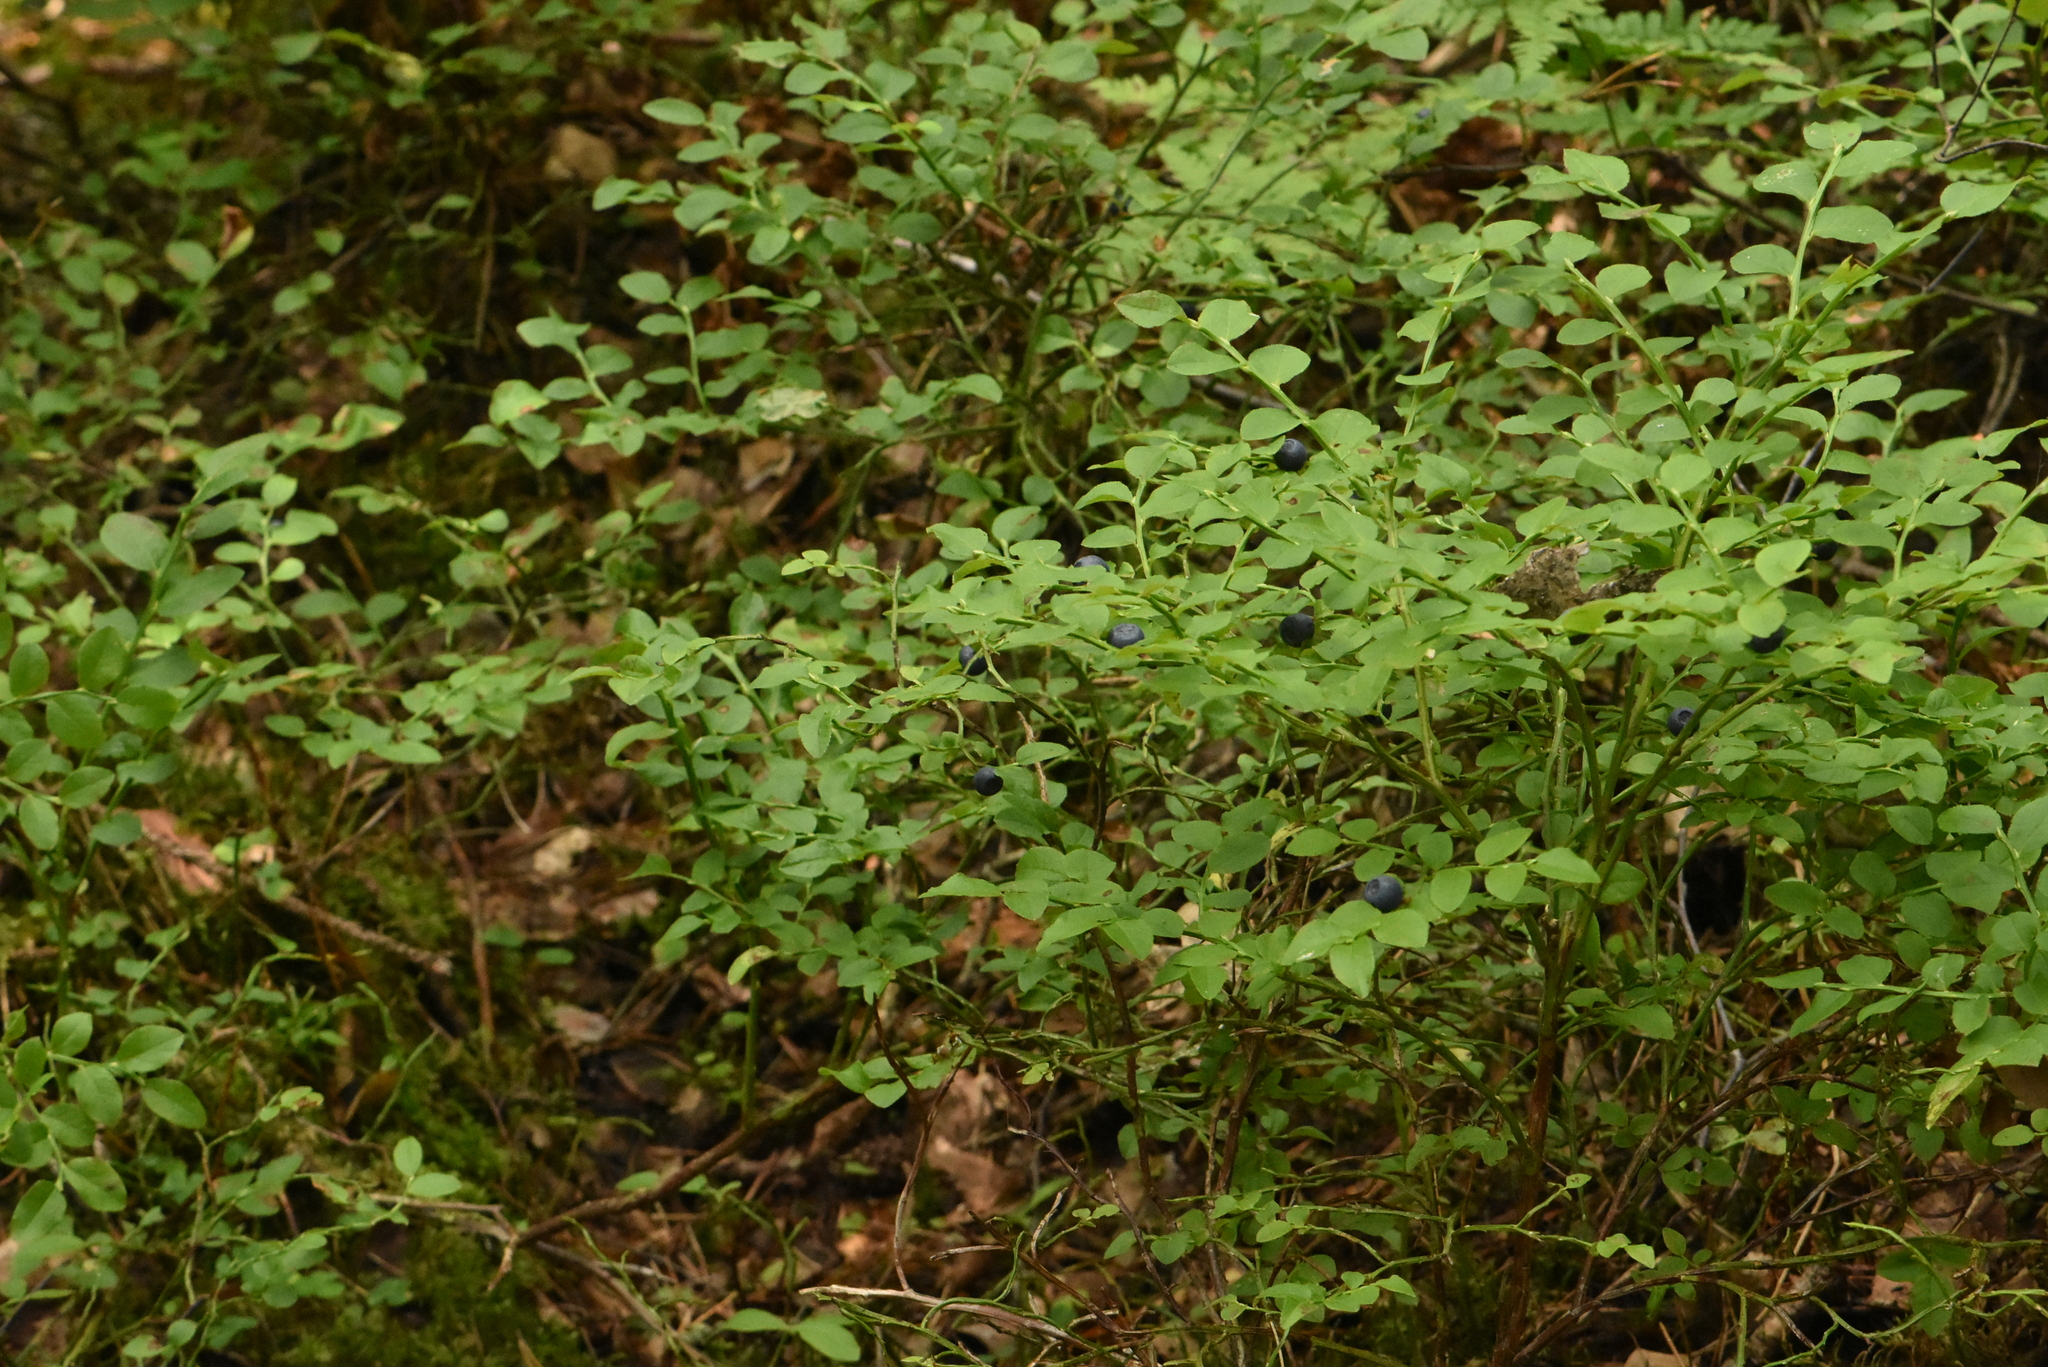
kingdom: Plantae
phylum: Tracheophyta
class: Magnoliopsida
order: Ericales
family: Ericaceae
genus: Vaccinium
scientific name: Vaccinium myrtillus
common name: Bilberry
